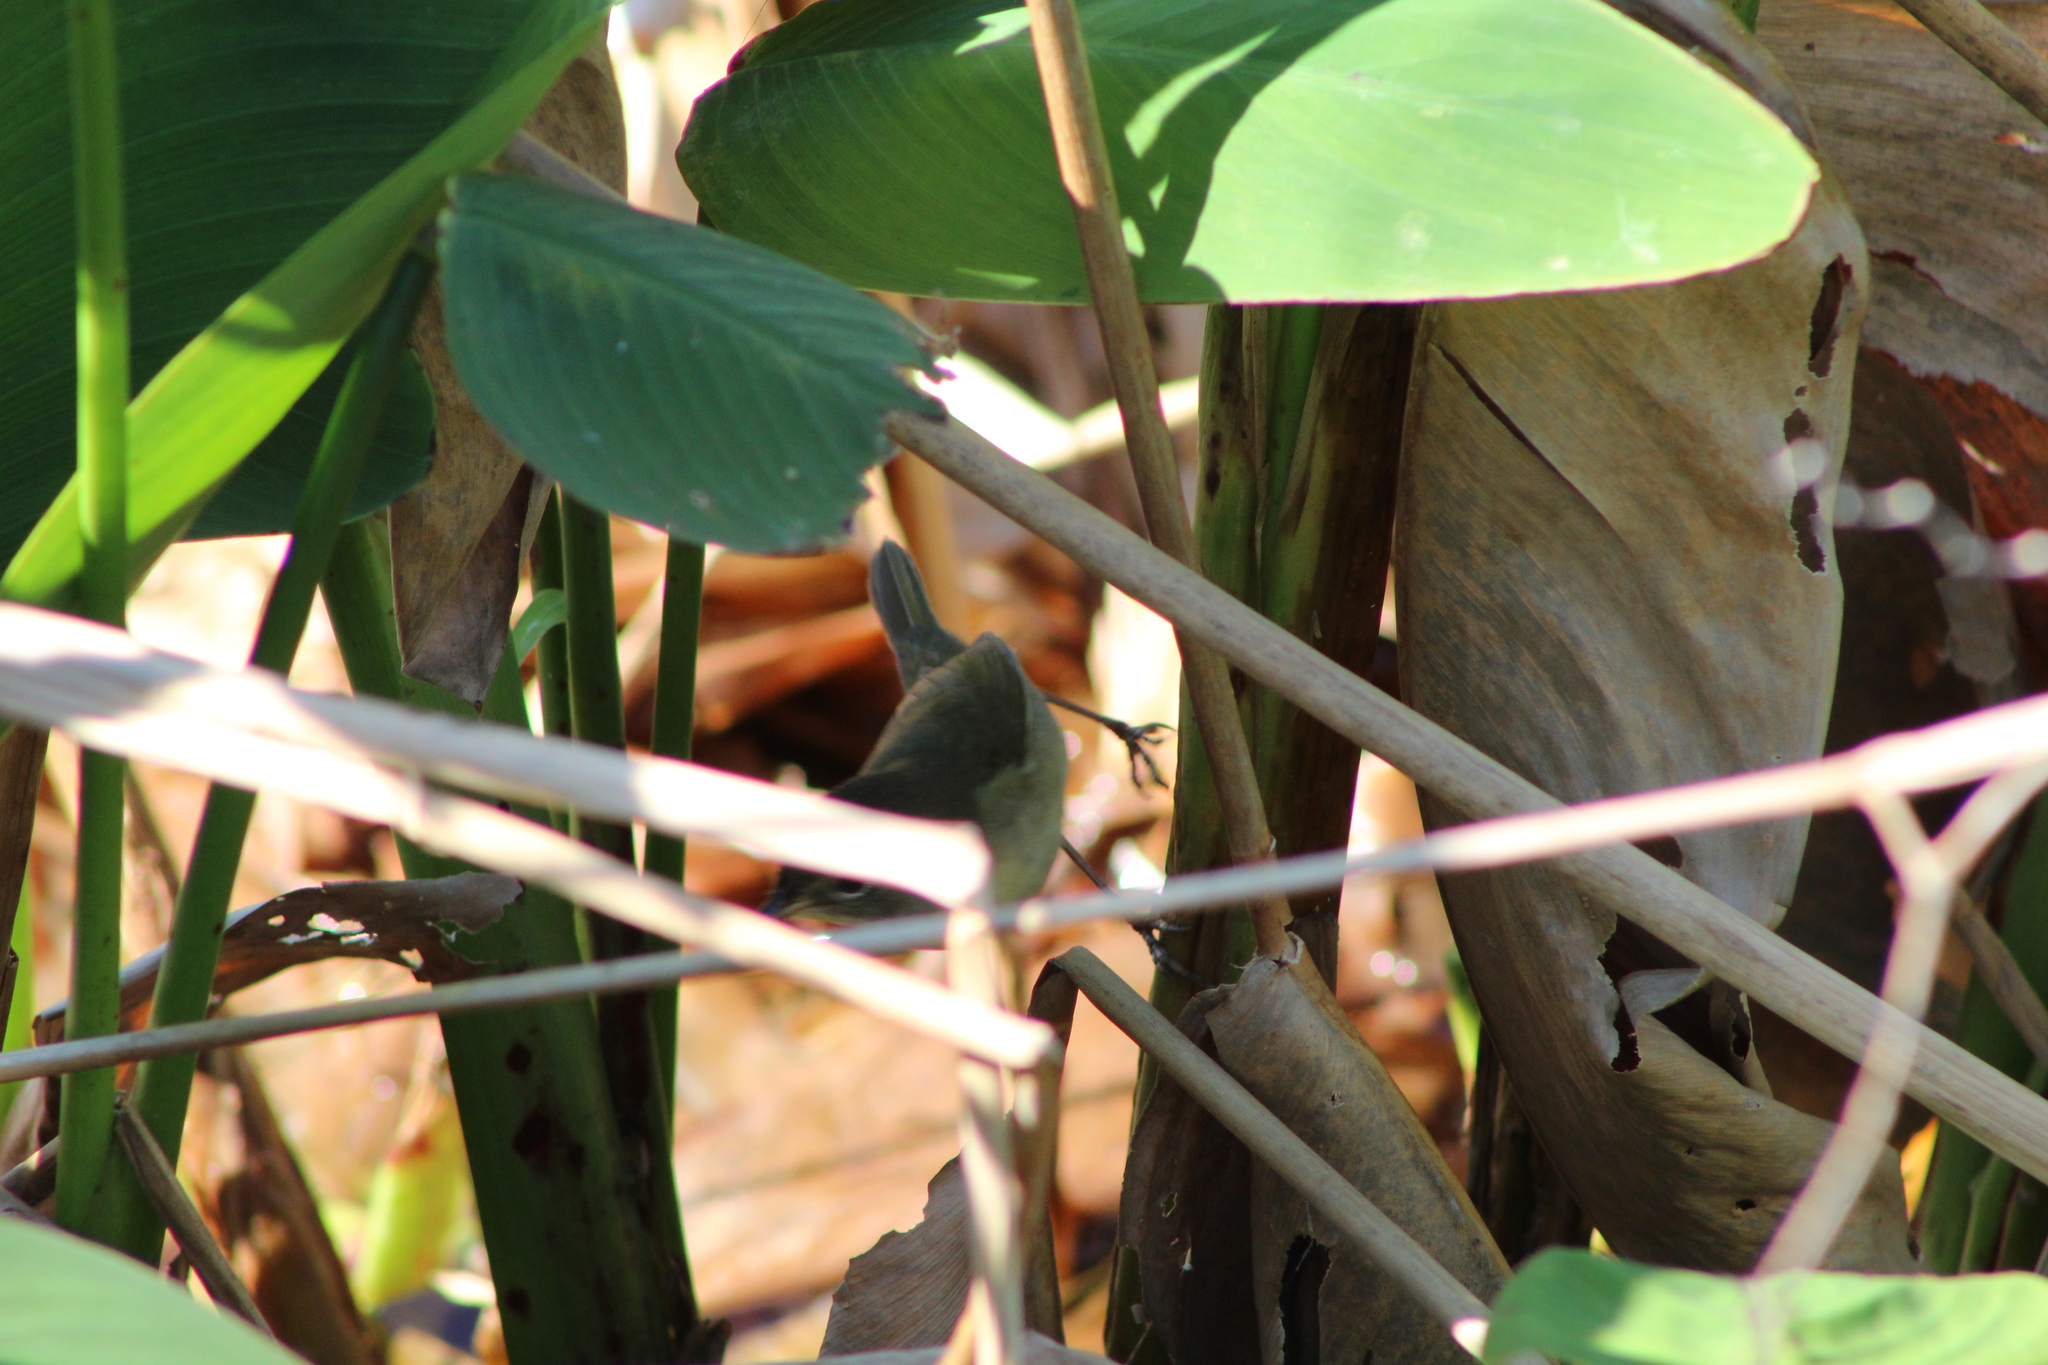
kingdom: Animalia
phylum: Chordata
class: Aves
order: Passeriformes
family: Parulidae
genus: Geothlypis
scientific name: Geothlypis trichas
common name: Common yellowthroat
